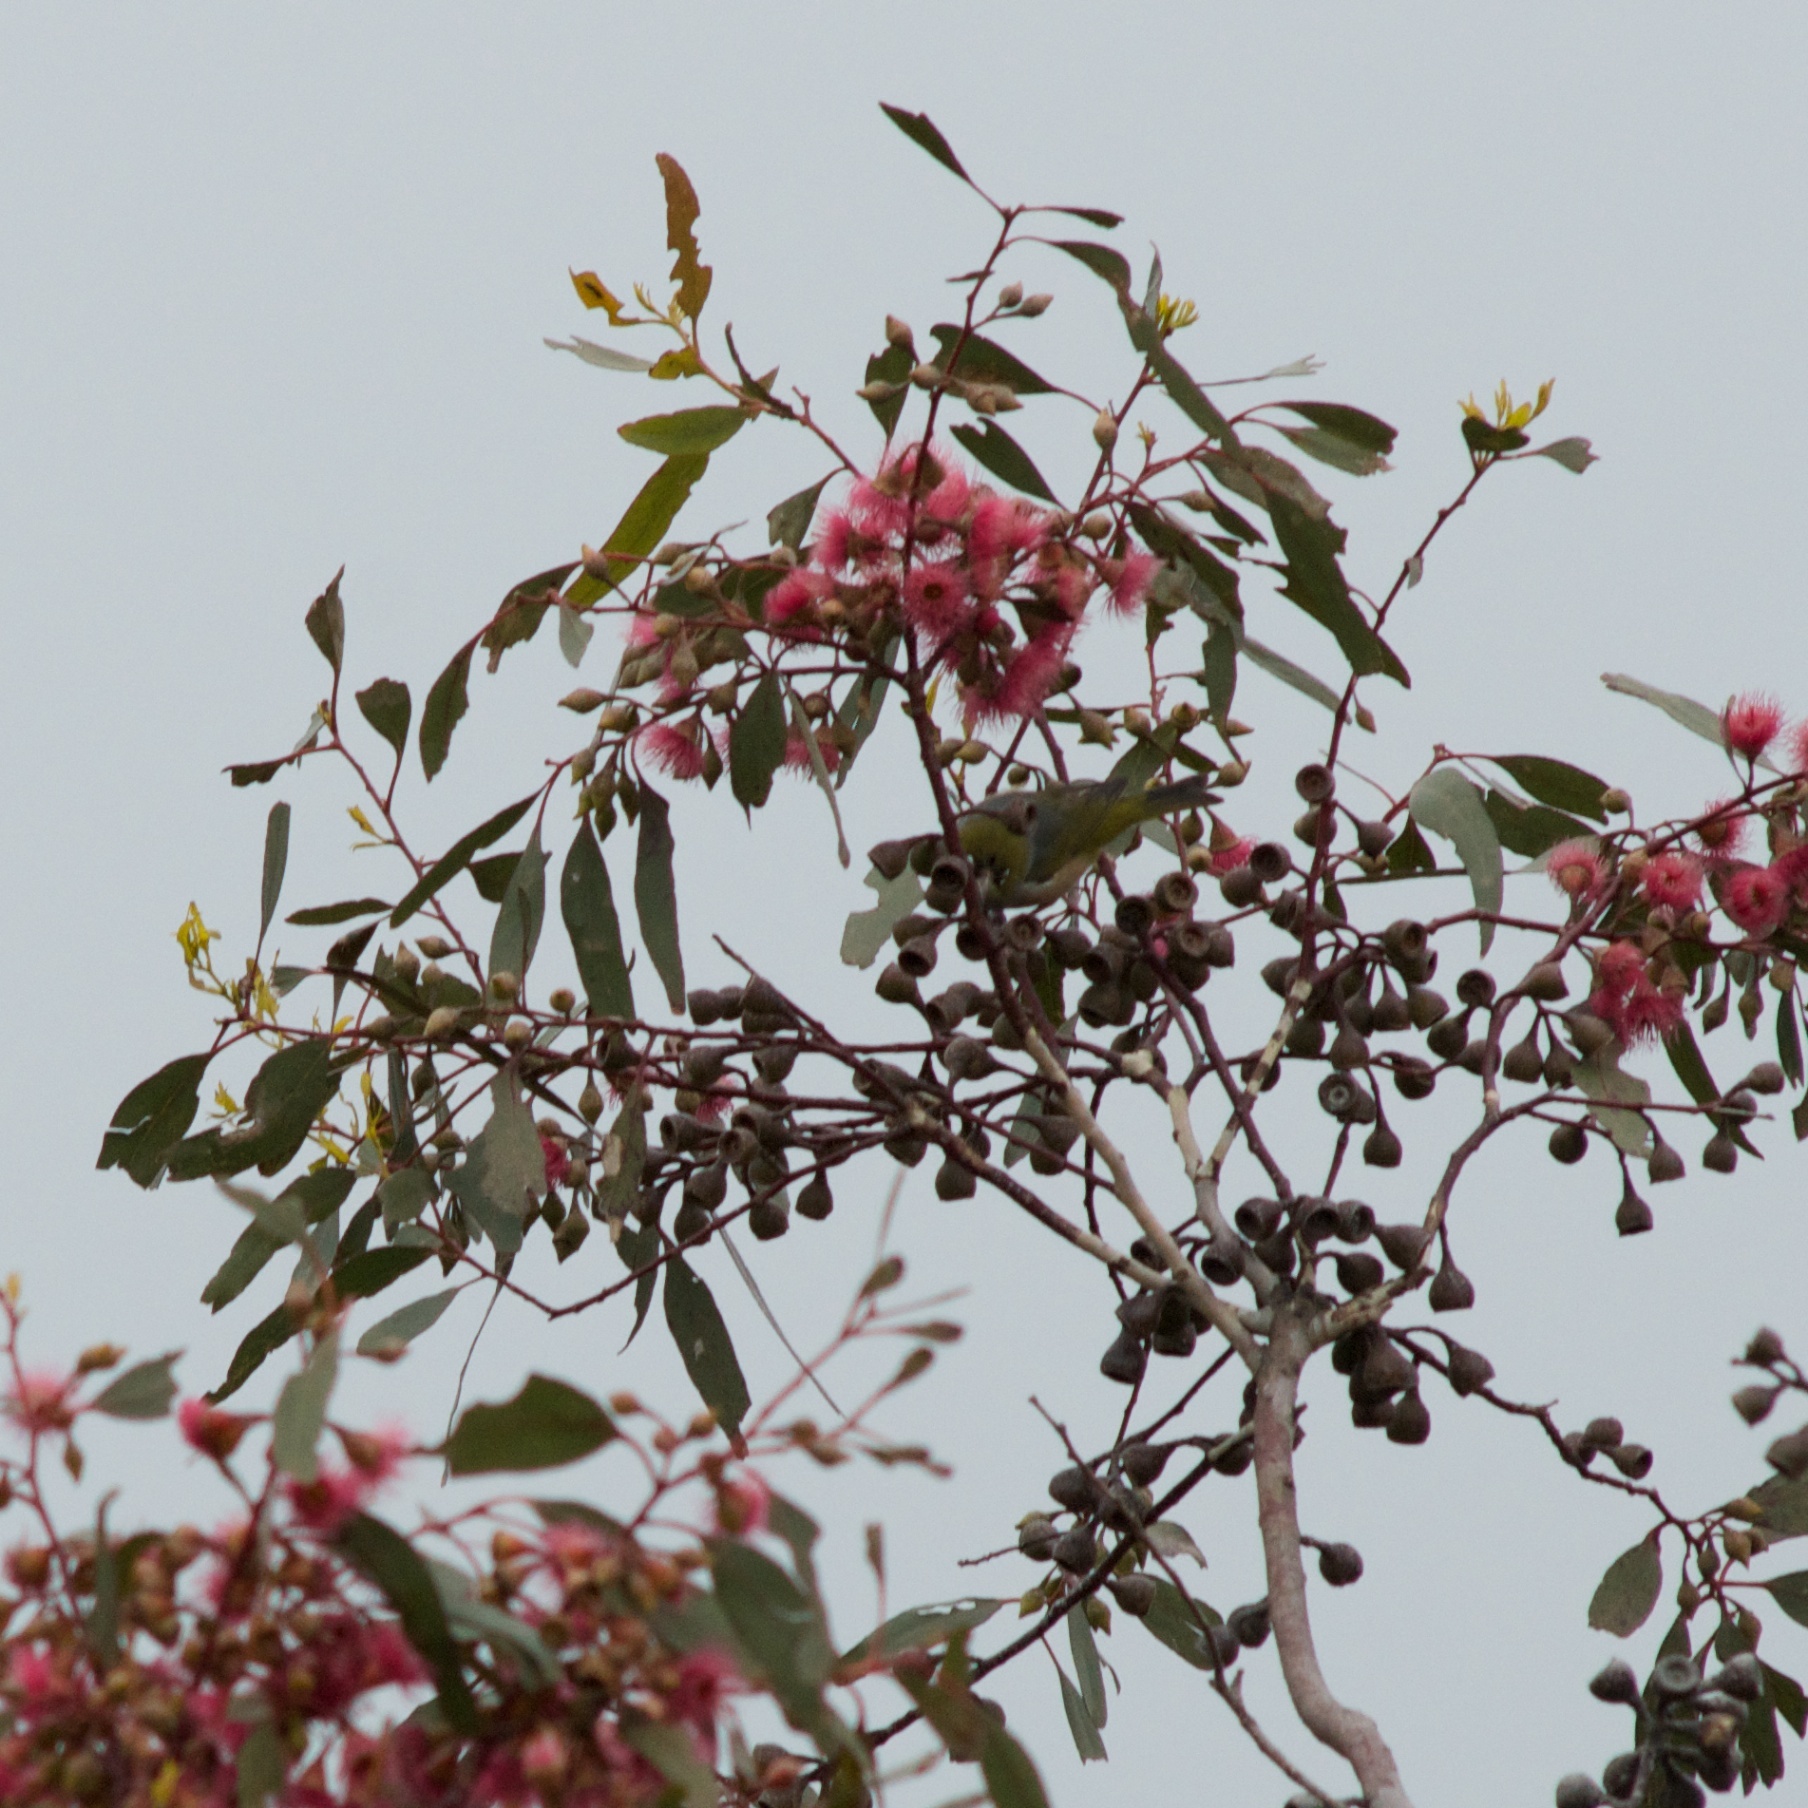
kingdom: Animalia
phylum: Chordata
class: Aves
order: Passeriformes
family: Zosteropidae
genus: Zosterops
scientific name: Zosterops lateralis
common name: Silvereye
